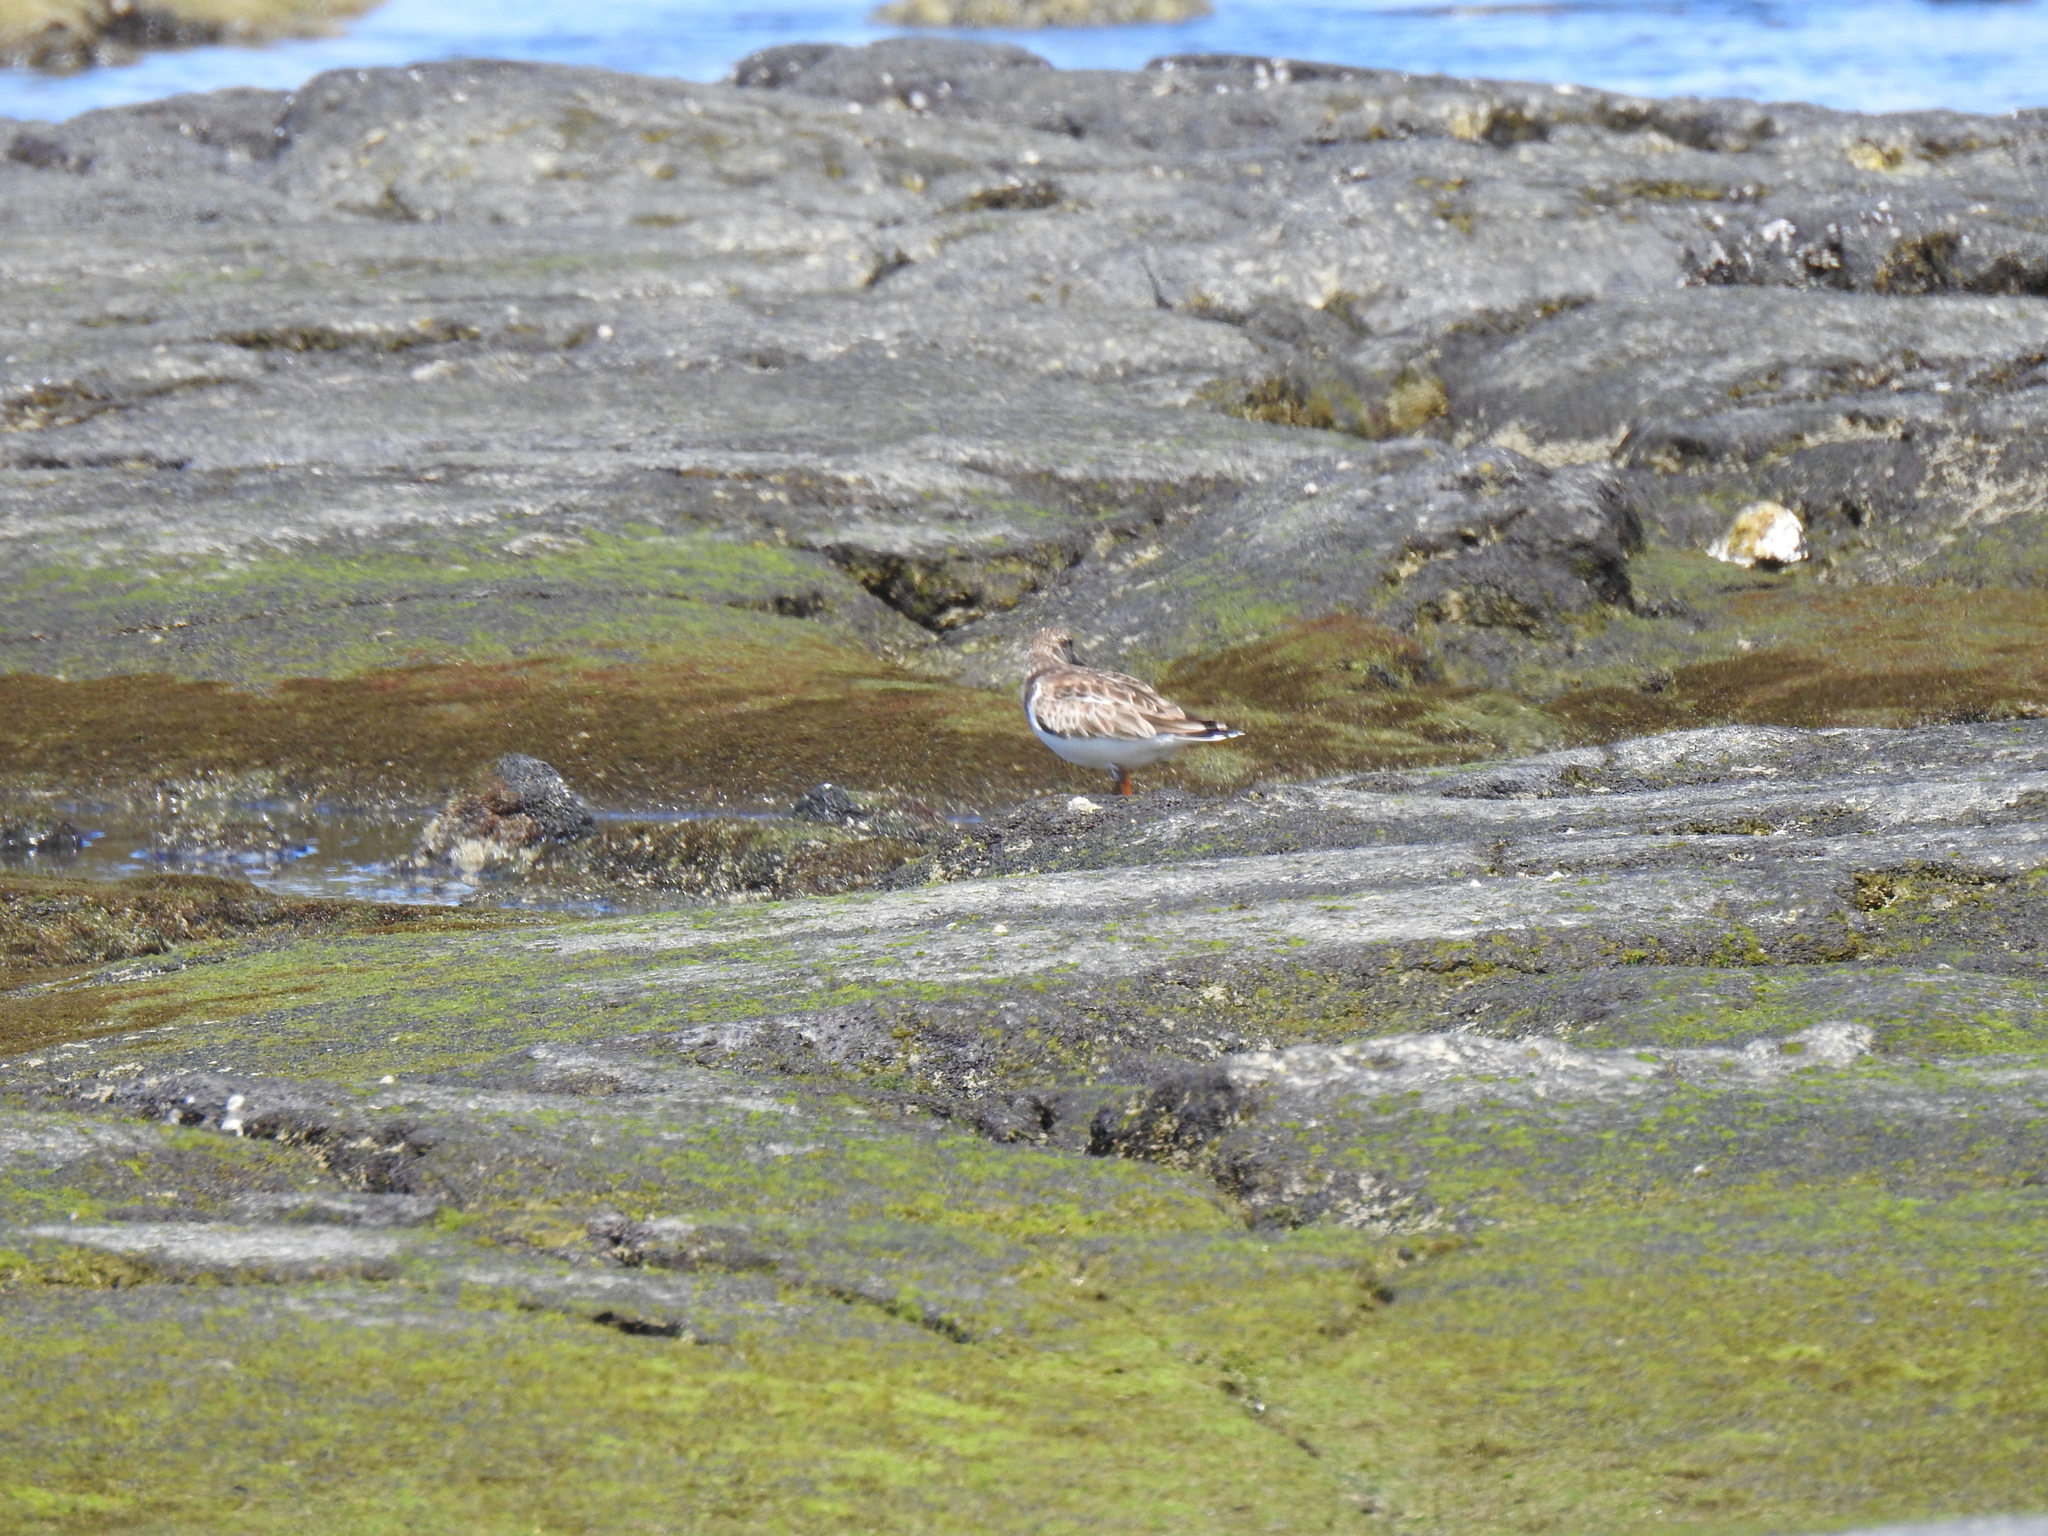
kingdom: Animalia
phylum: Chordata
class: Aves
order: Charadriiformes
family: Scolopacidae
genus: Arenaria
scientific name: Arenaria interpres
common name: Ruddy turnstone
